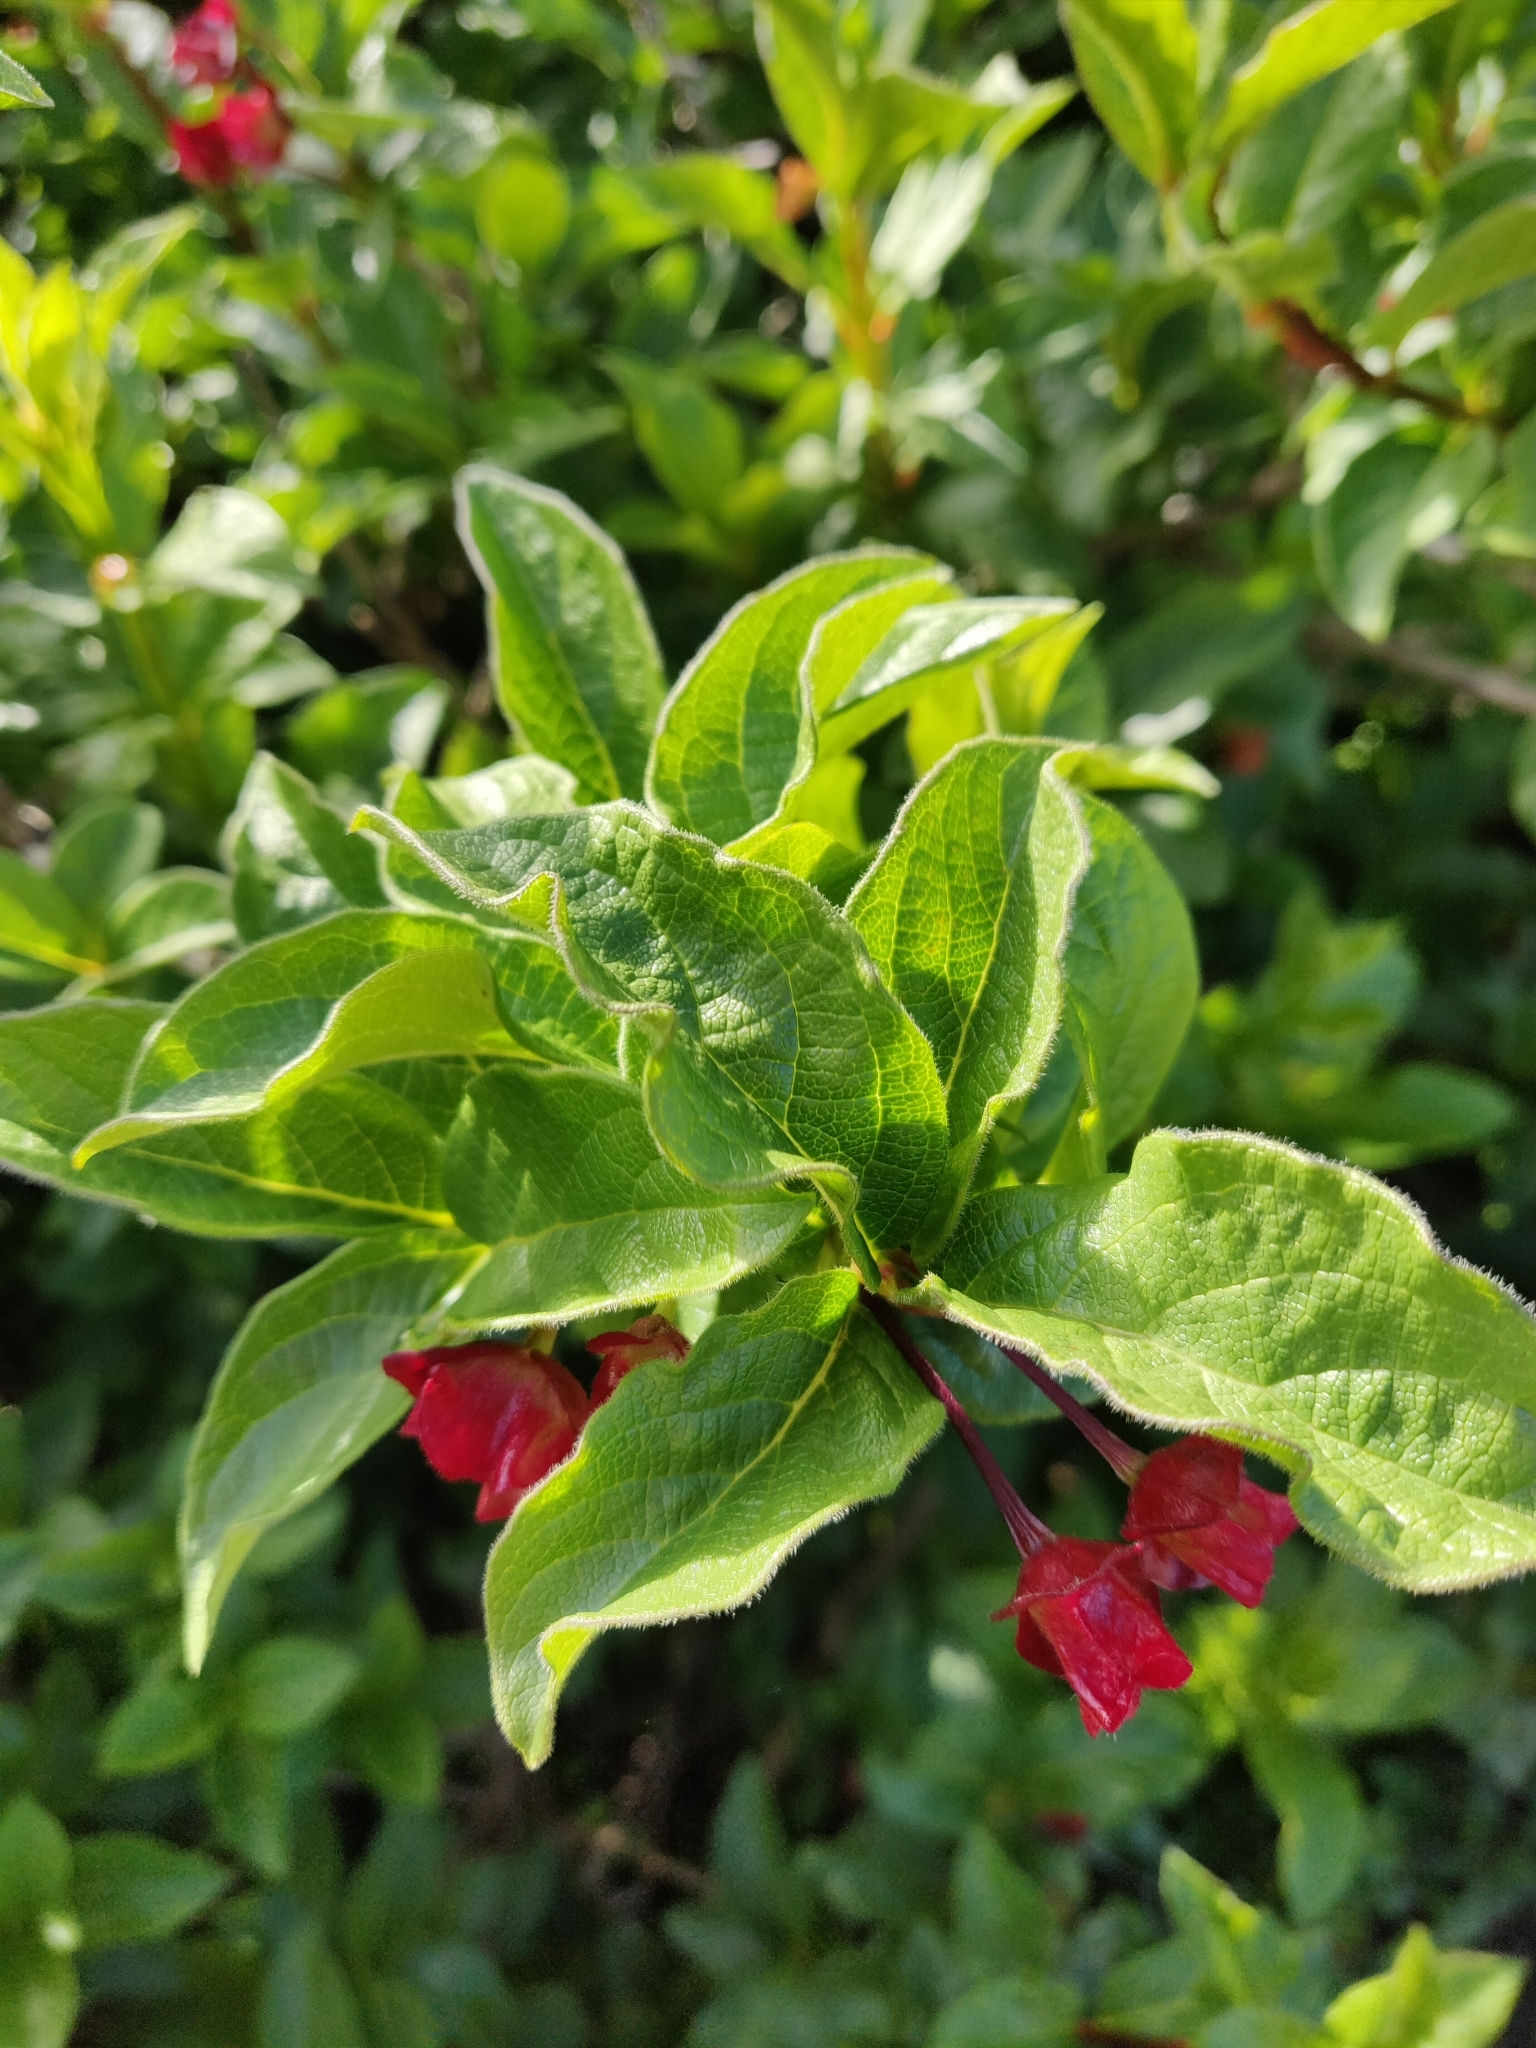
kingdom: Plantae
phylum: Tracheophyta
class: Magnoliopsida
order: Dipsacales
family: Caprifoliaceae
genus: Lonicera
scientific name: Lonicera involucrata
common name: Californian honeysuckle
